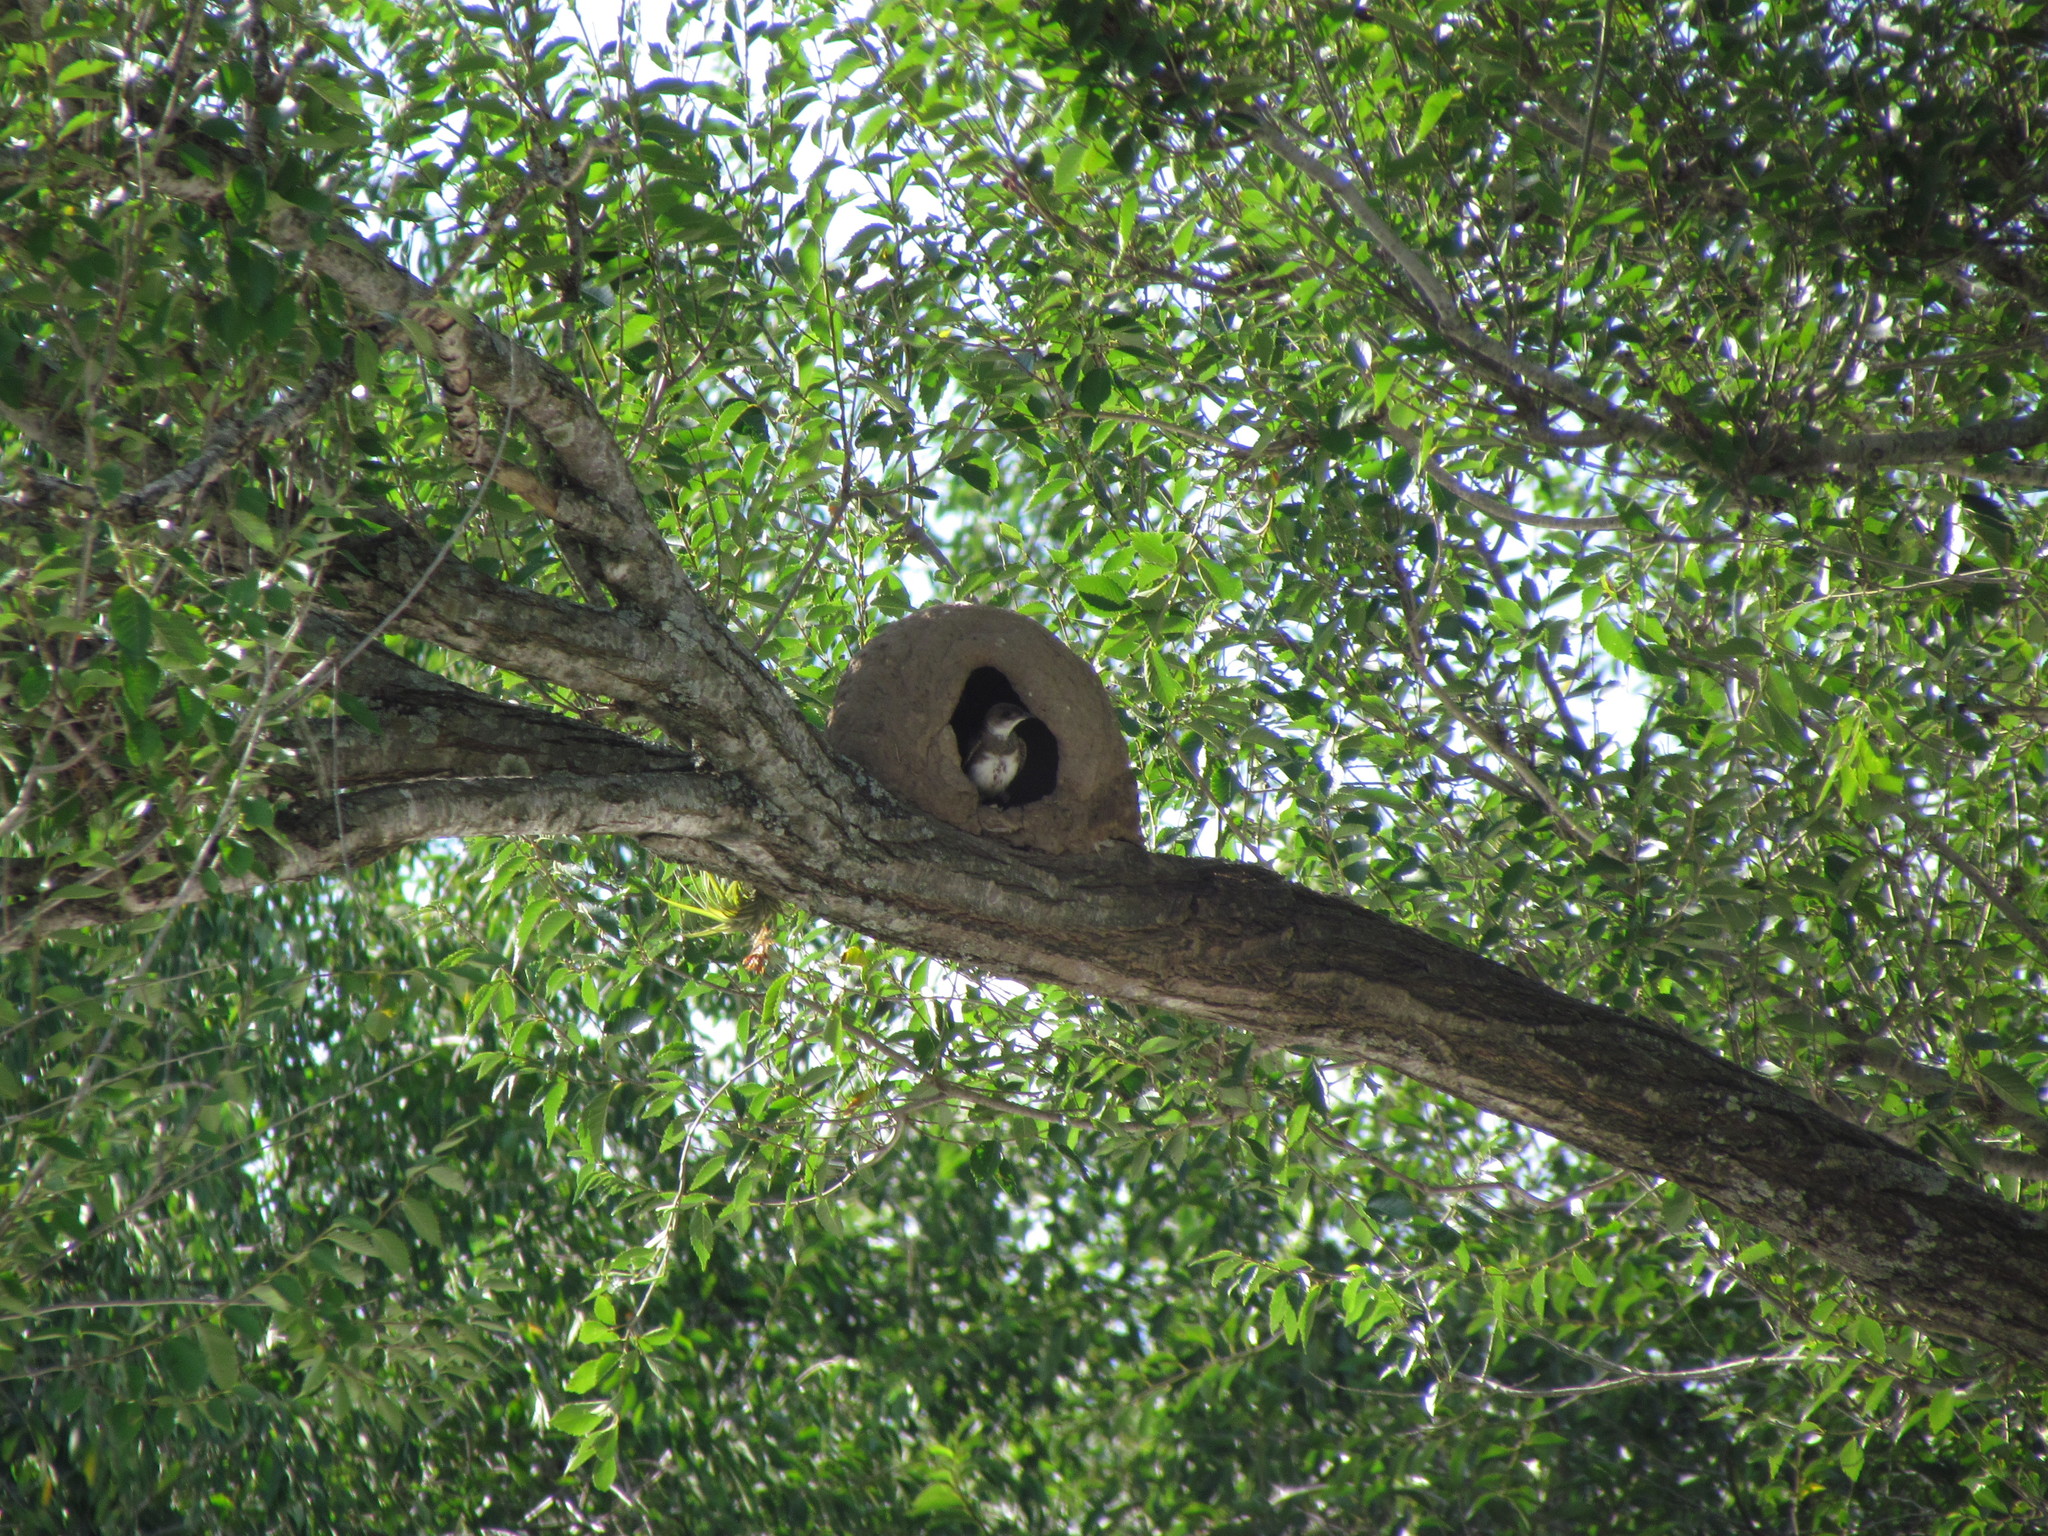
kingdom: Animalia
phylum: Chordata
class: Aves
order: Passeriformes
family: Hirundinidae
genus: Progne
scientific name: Progne tapera
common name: Brown-chested martin
